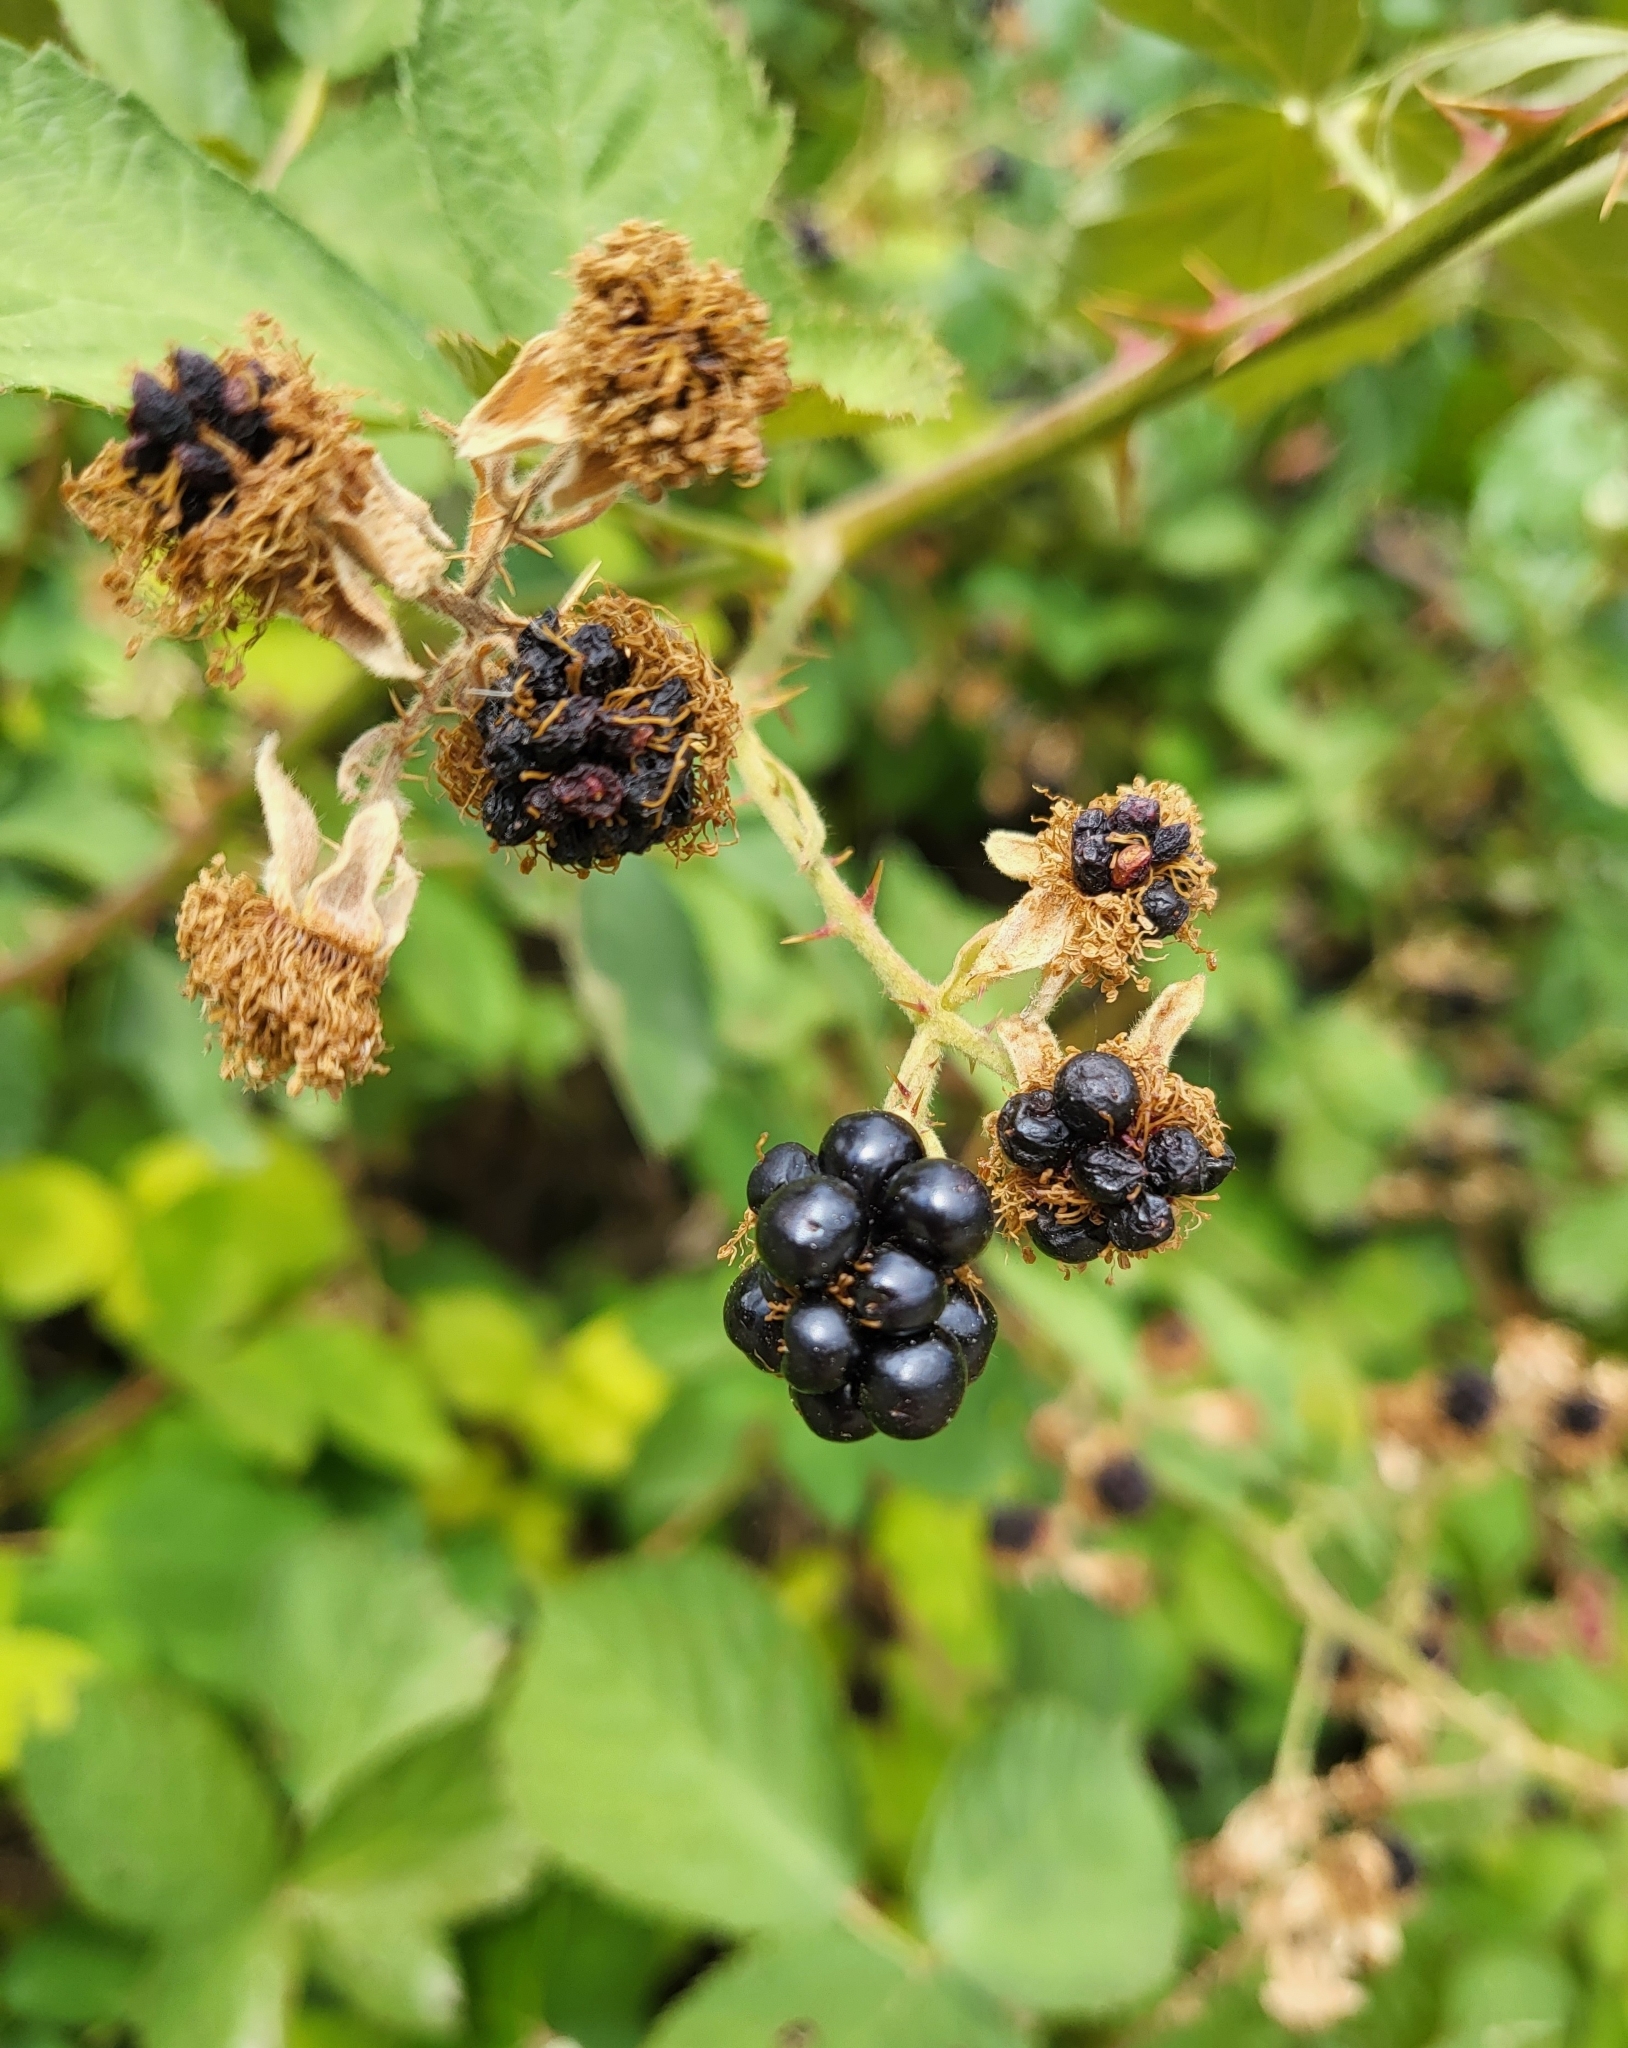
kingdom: Plantae
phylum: Tracheophyta
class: Magnoliopsida
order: Rosales
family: Rosaceae
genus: Rubus
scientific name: Rubus armeniacus
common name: Himalayan blackberry
